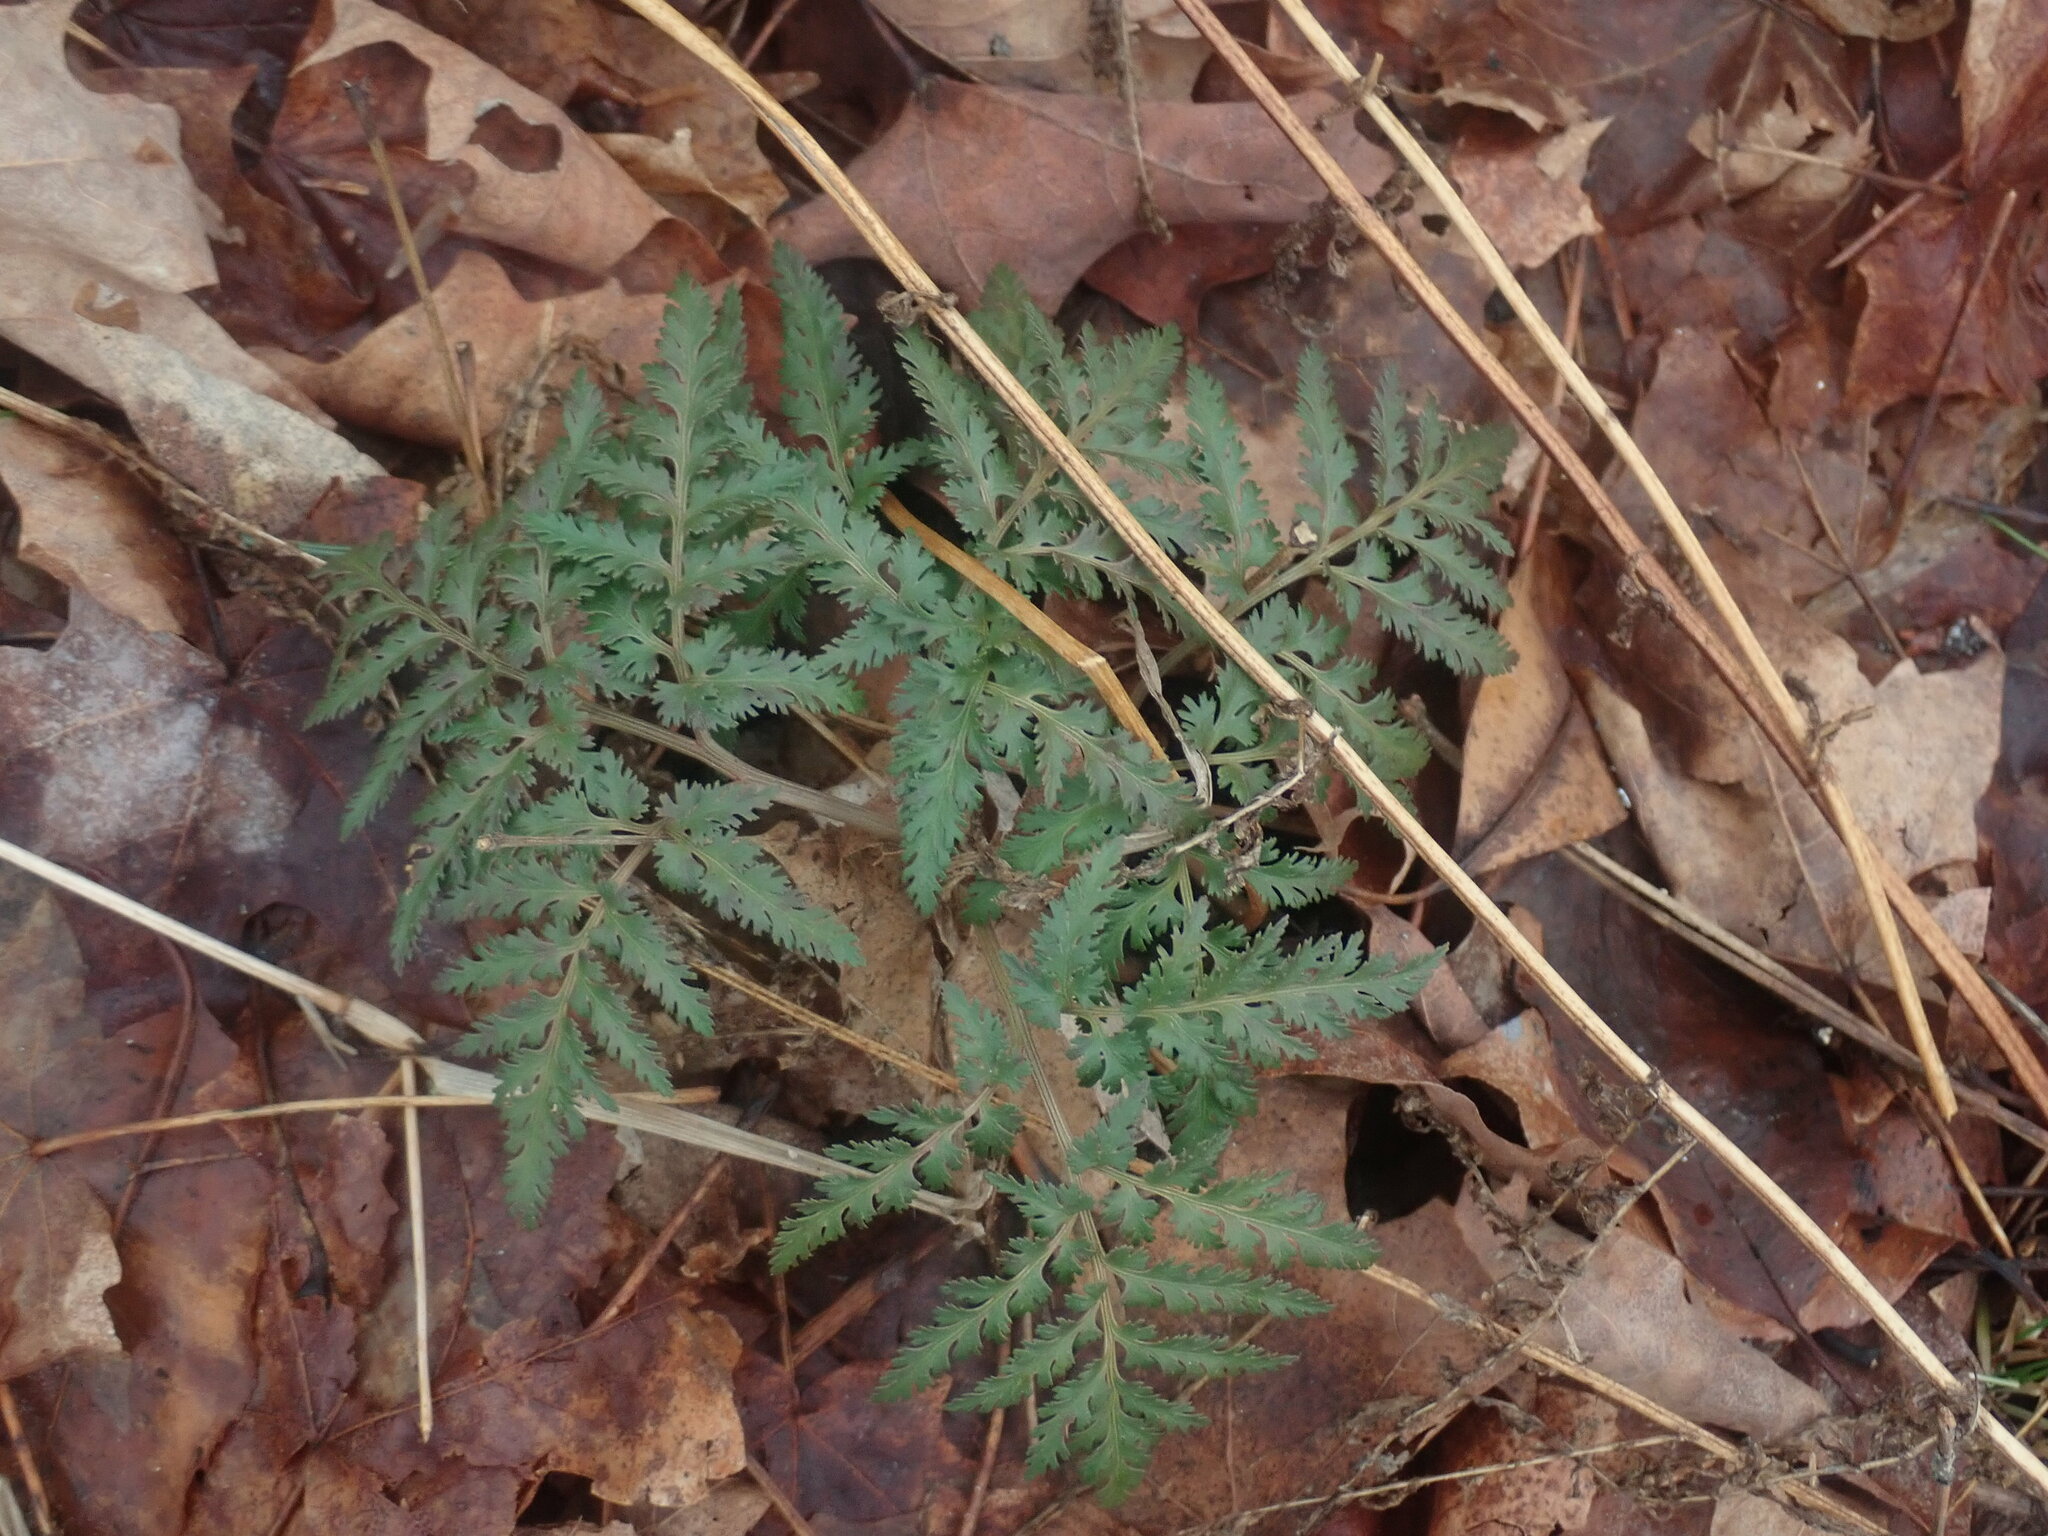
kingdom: Plantae
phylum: Tracheophyta
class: Polypodiopsida
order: Ophioglossales
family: Ophioglossaceae
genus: Sceptridium
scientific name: Sceptridium dissectum
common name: Cut-leaved grapefern
